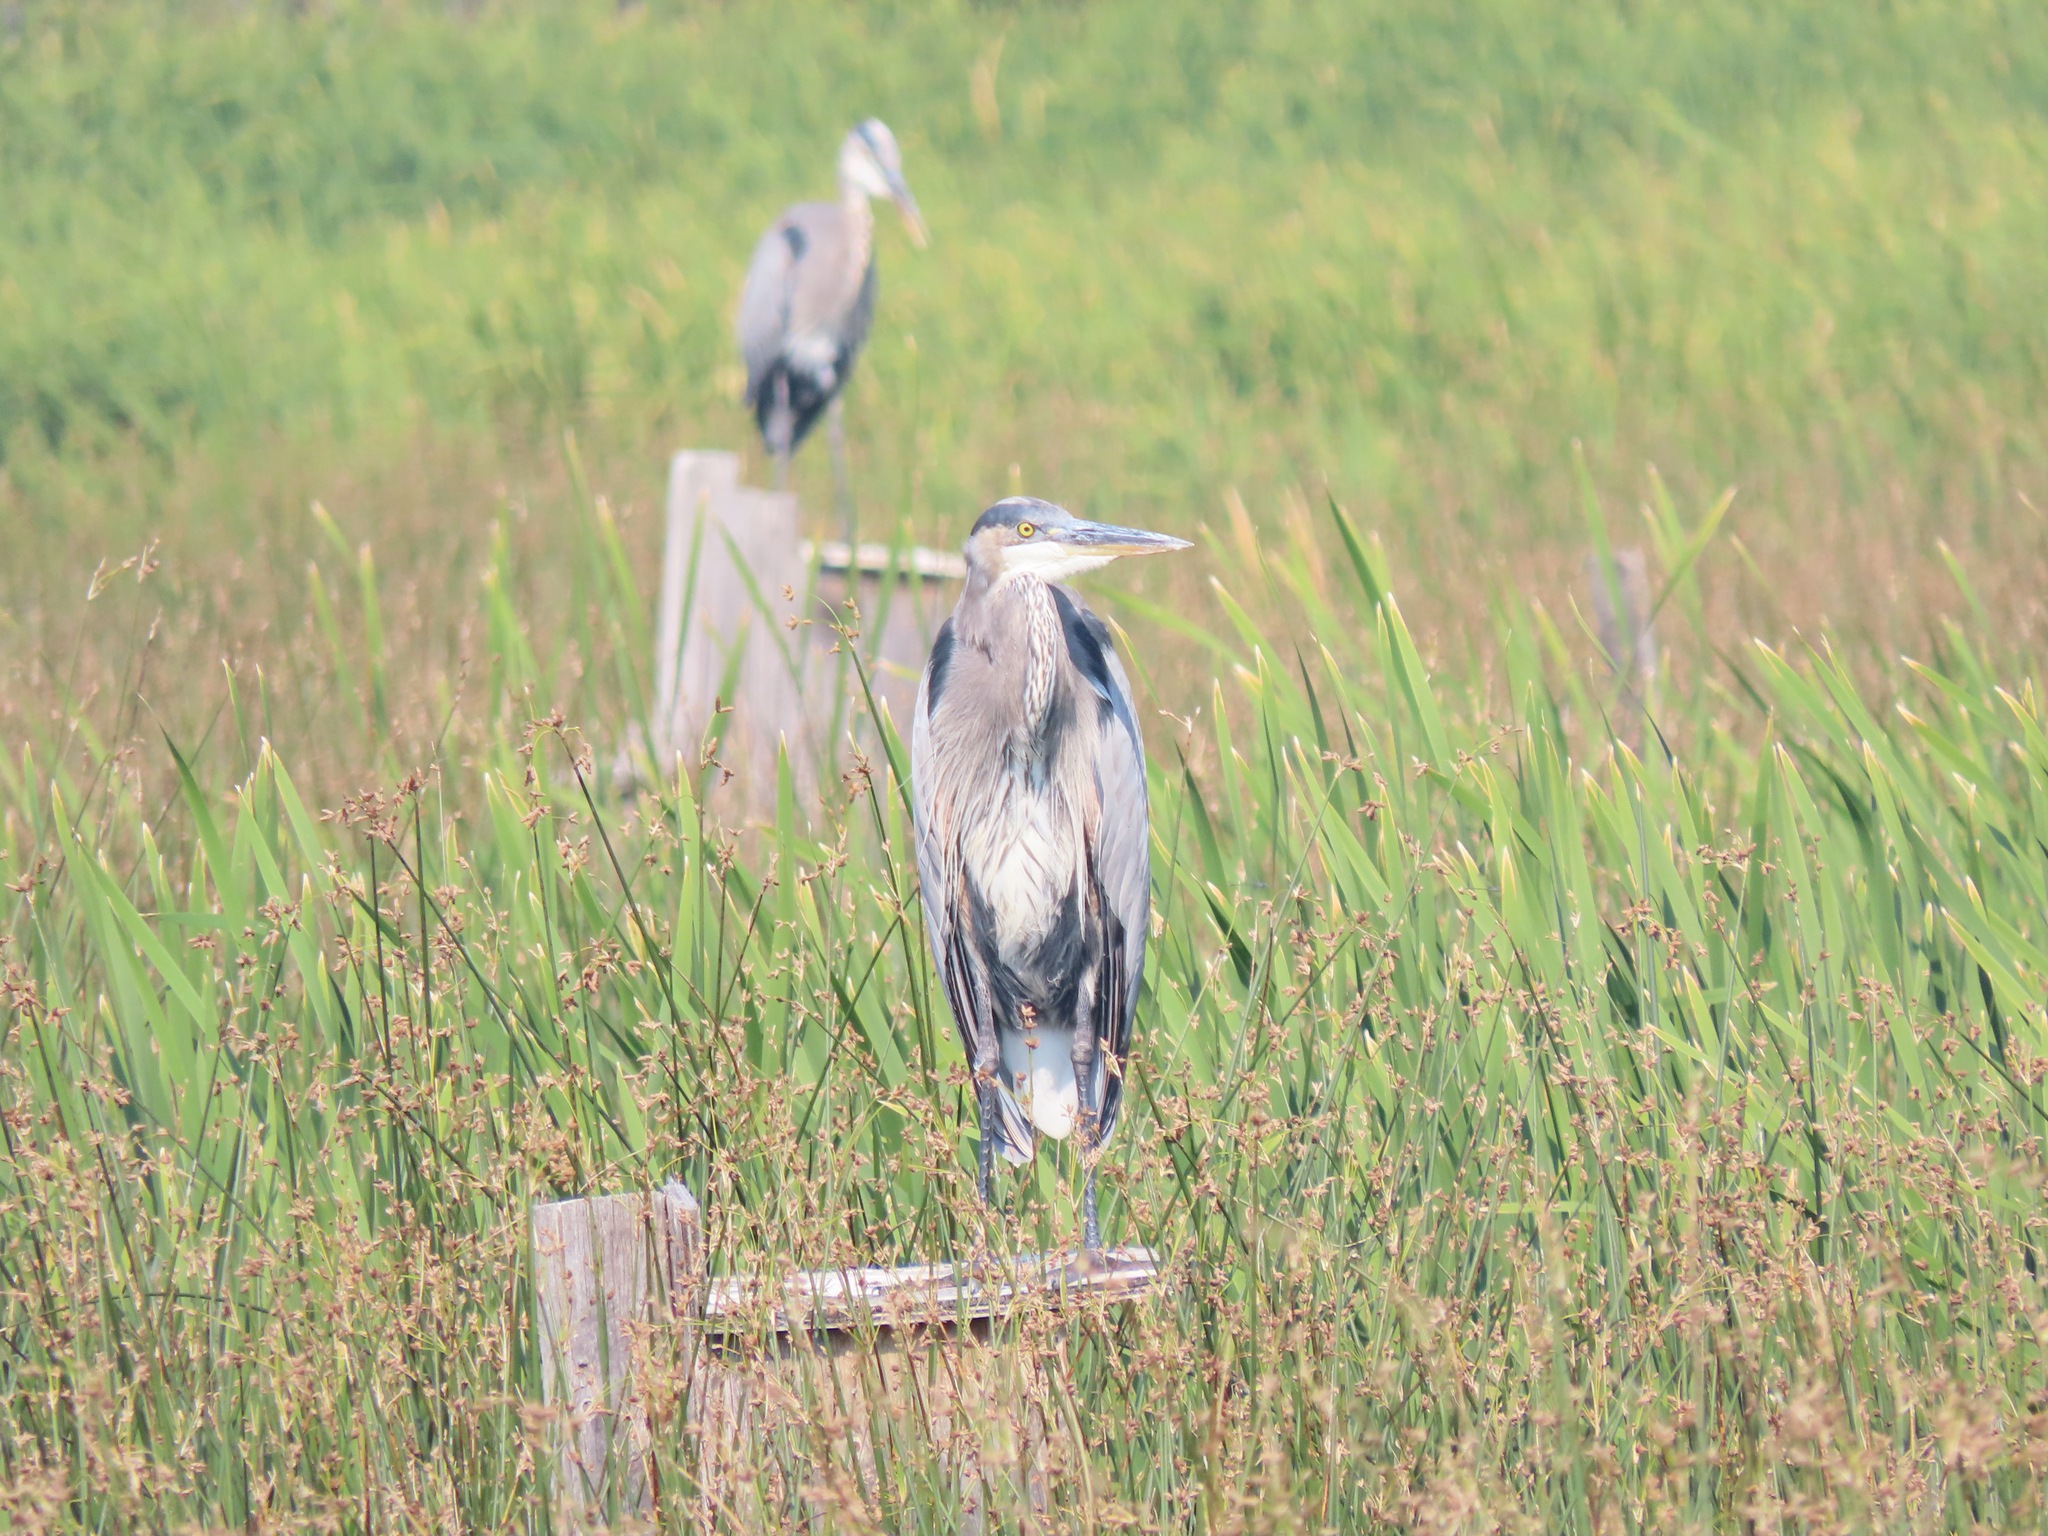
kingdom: Animalia
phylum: Chordata
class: Aves
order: Pelecaniformes
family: Ardeidae
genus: Ardea
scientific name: Ardea herodias
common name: Great blue heron
